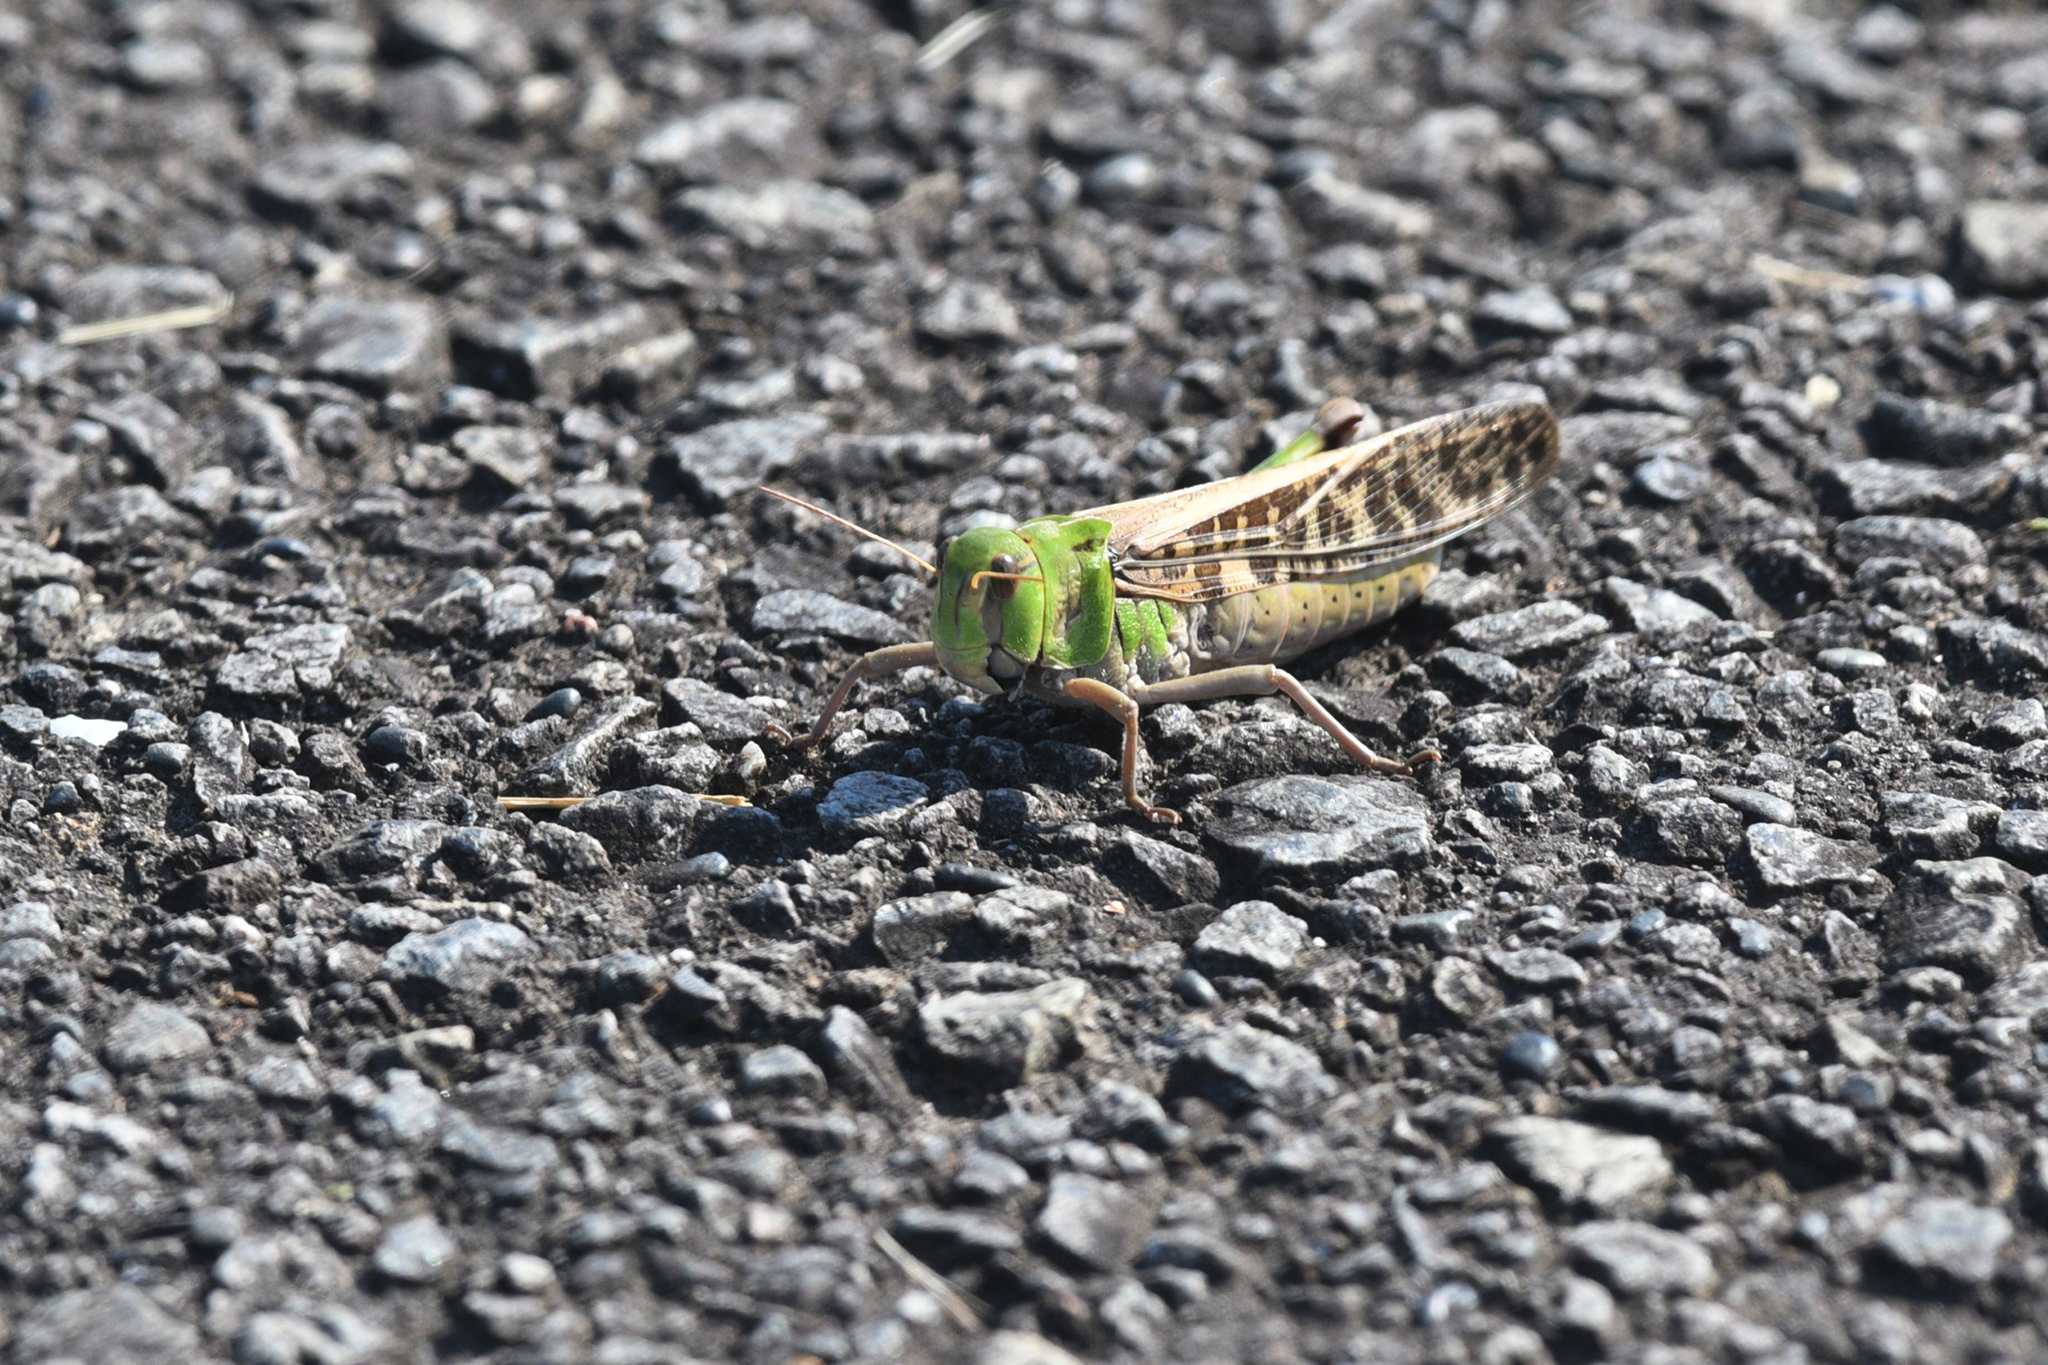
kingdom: Animalia
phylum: Arthropoda
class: Insecta
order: Orthoptera
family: Acrididae
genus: Locusta
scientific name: Locusta migratoria
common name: Migratory locust
